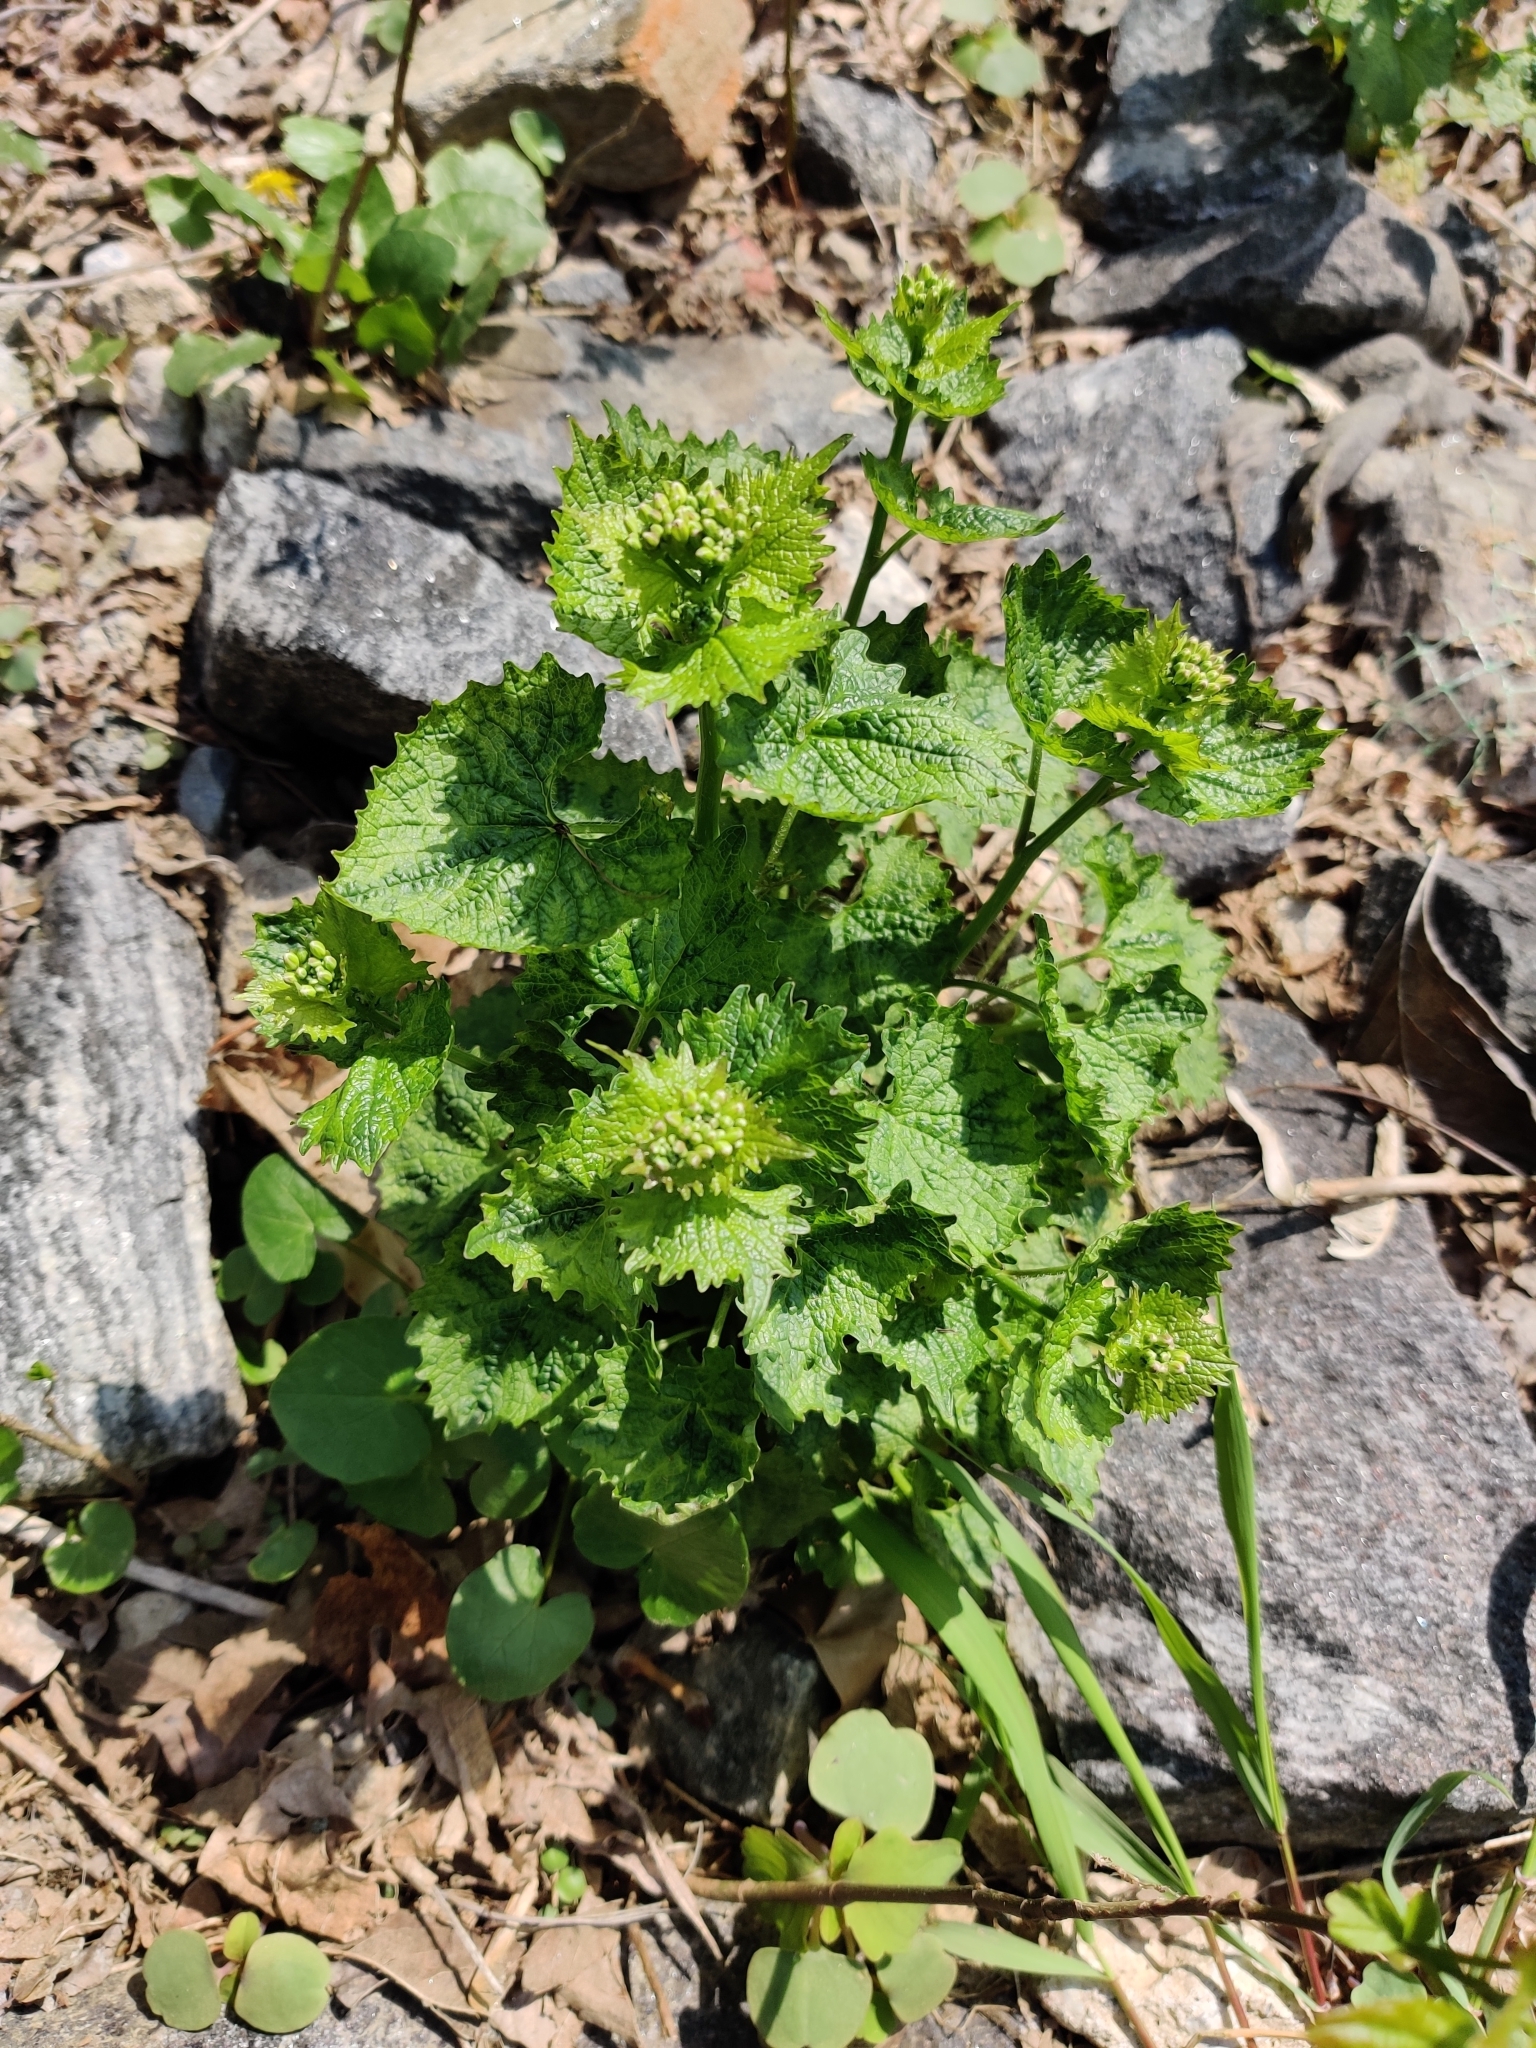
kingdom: Plantae
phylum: Tracheophyta
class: Magnoliopsida
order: Brassicales
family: Brassicaceae
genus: Alliaria
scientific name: Alliaria petiolata
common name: Garlic mustard
